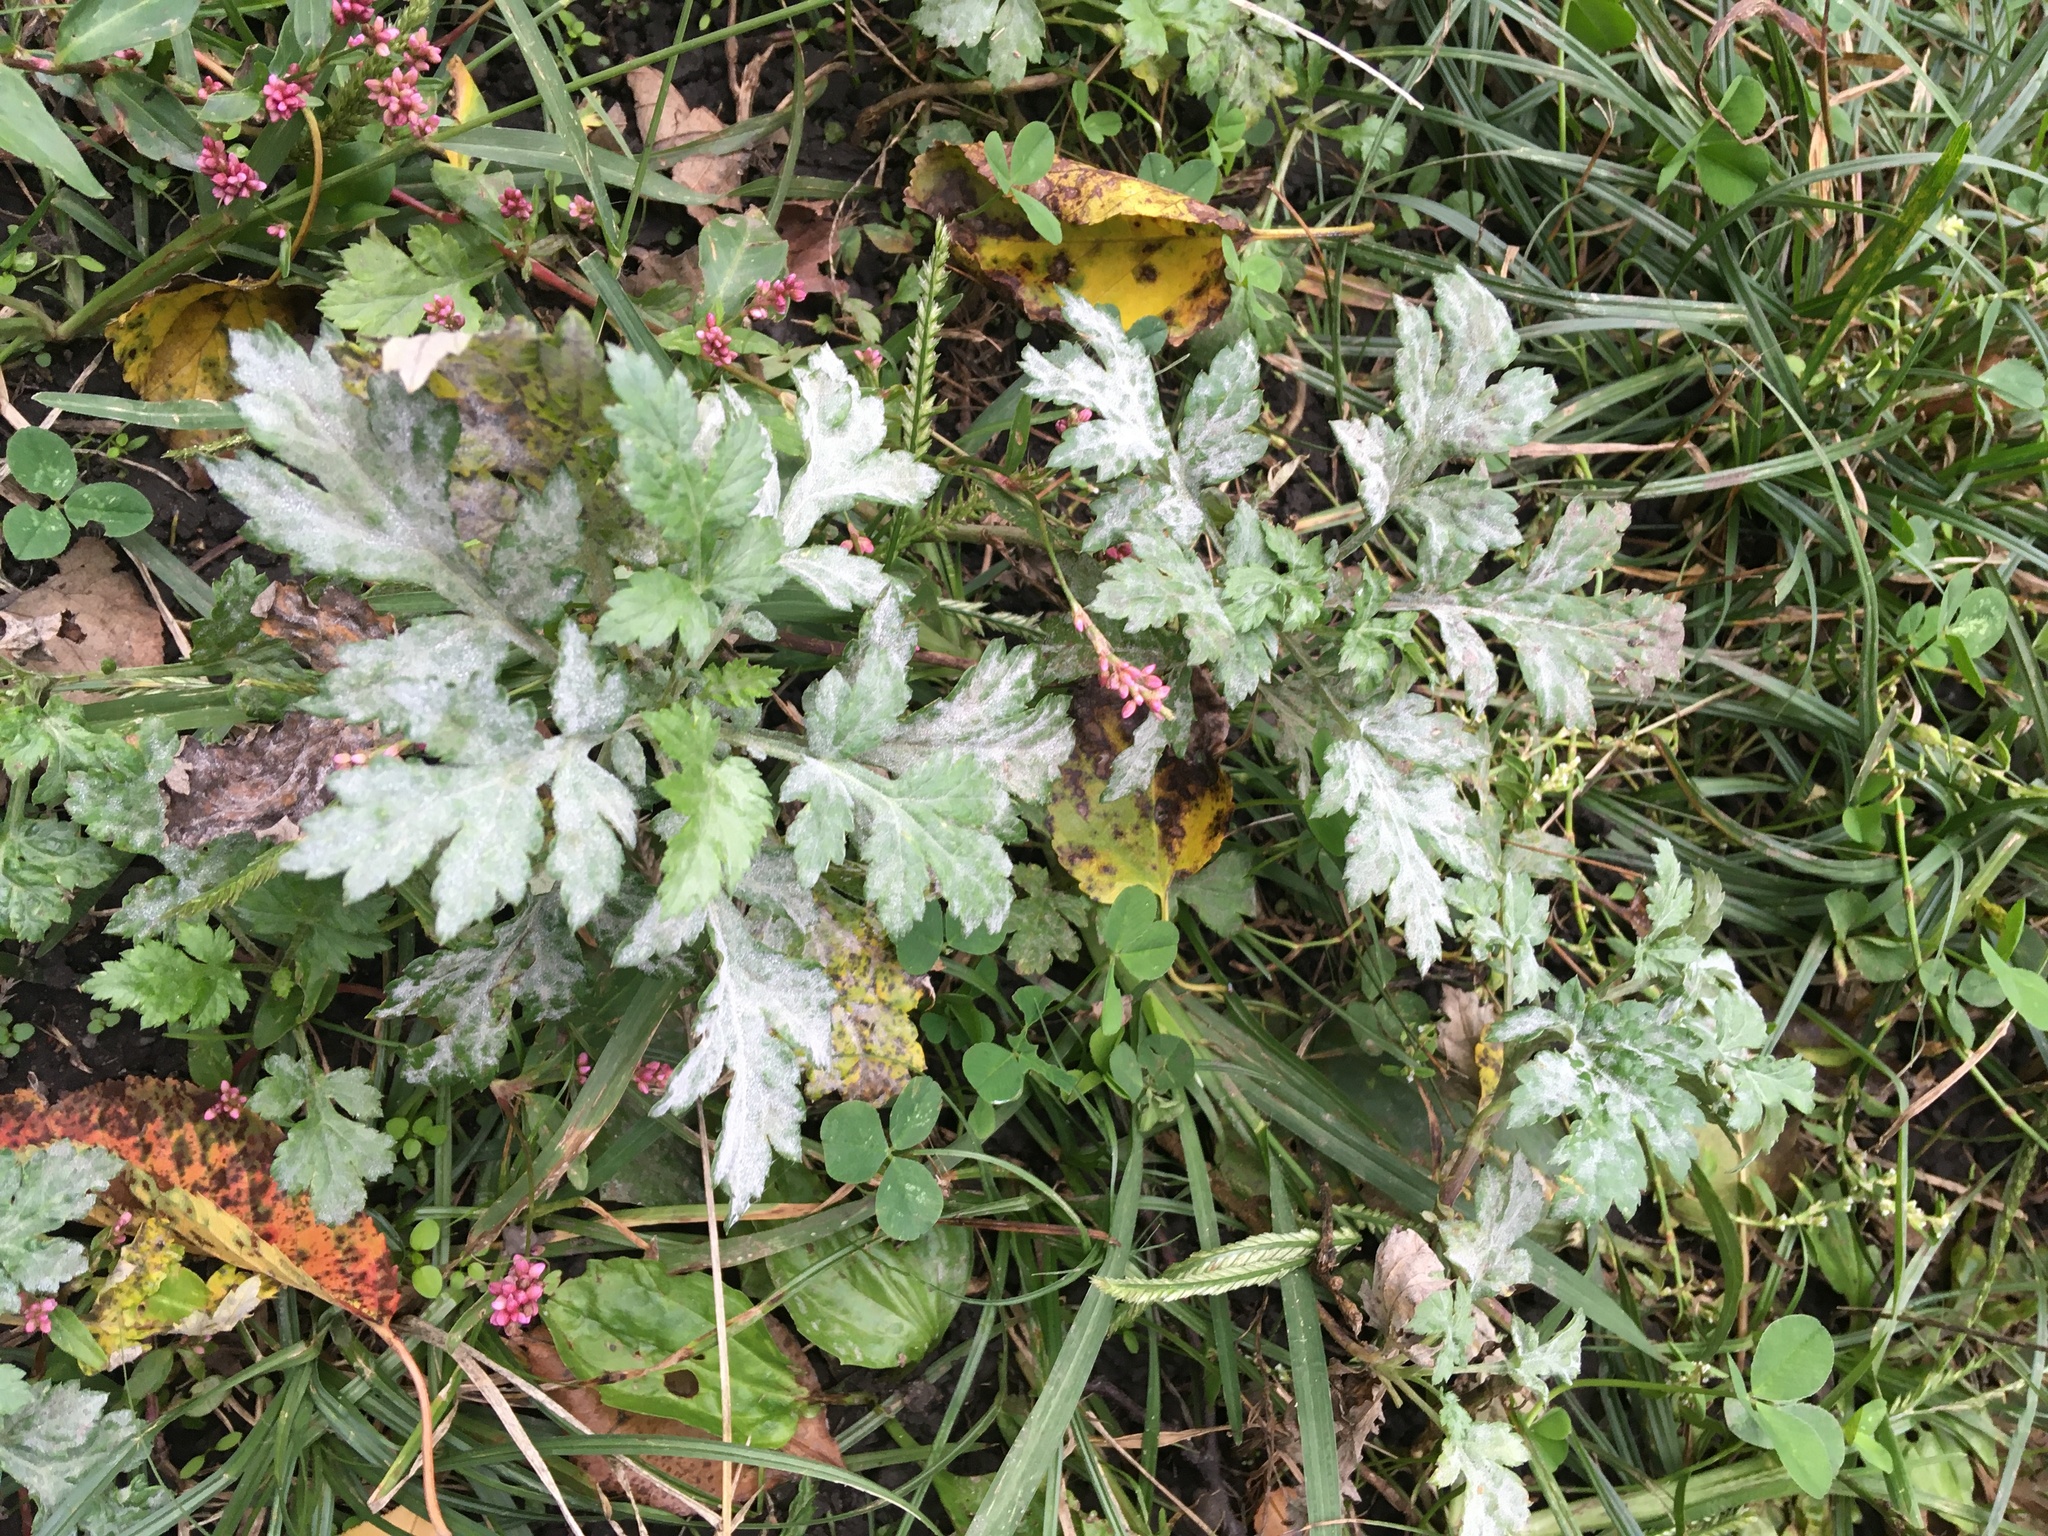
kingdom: Plantae
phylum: Tracheophyta
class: Magnoliopsida
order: Asterales
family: Asteraceae
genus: Artemisia
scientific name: Artemisia vulgaris
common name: Mugwort
